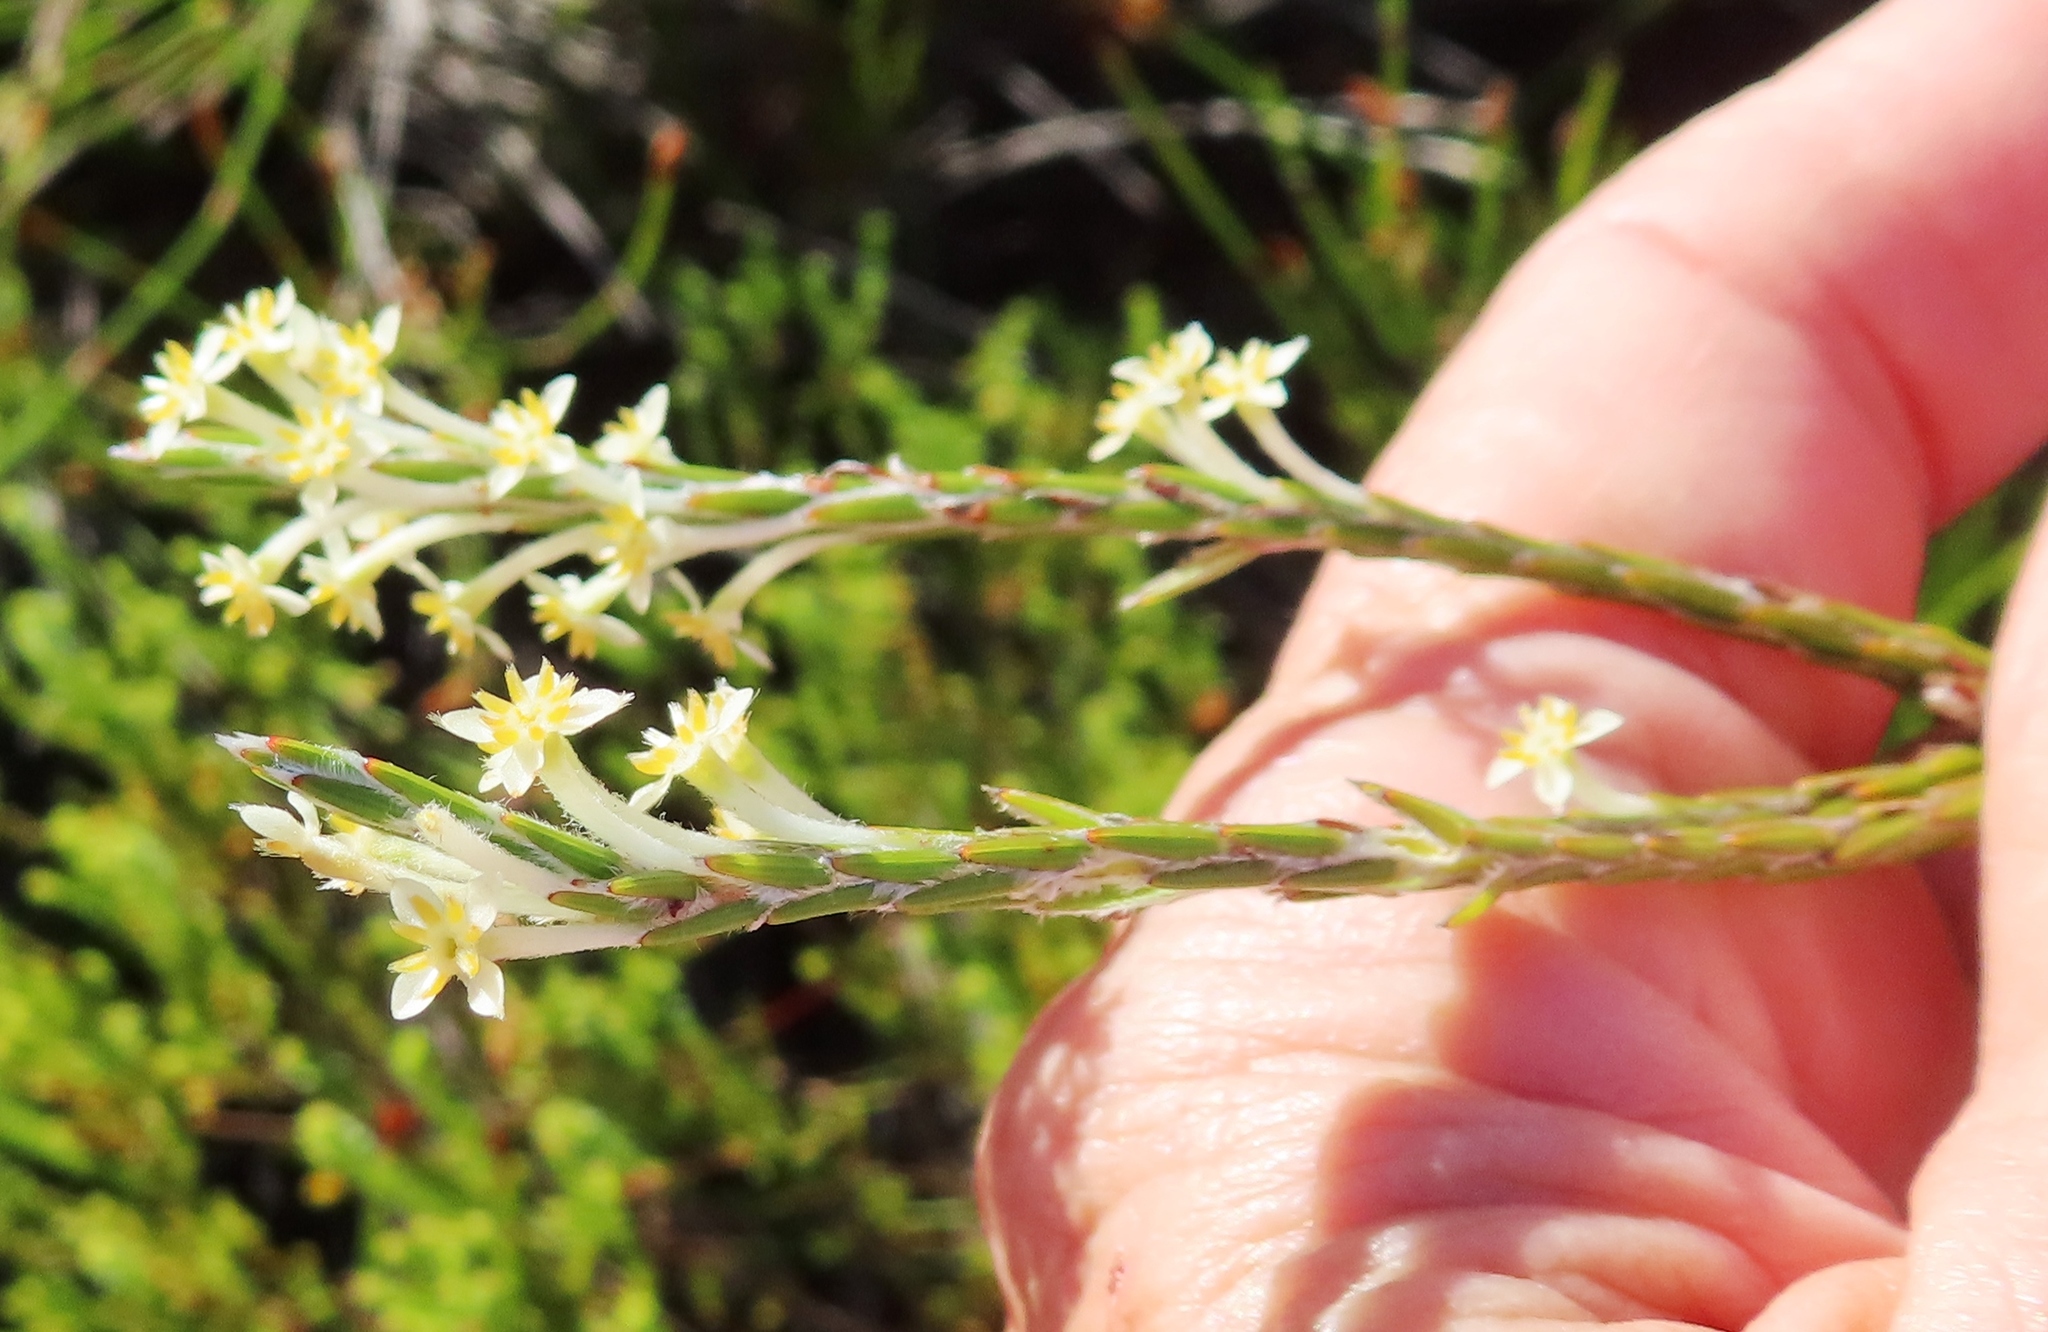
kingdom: Plantae
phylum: Tracheophyta
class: Magnoliopsida
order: Malvales
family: Thymelaeaceae
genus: Struthiola
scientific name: Struthiola ciliata
